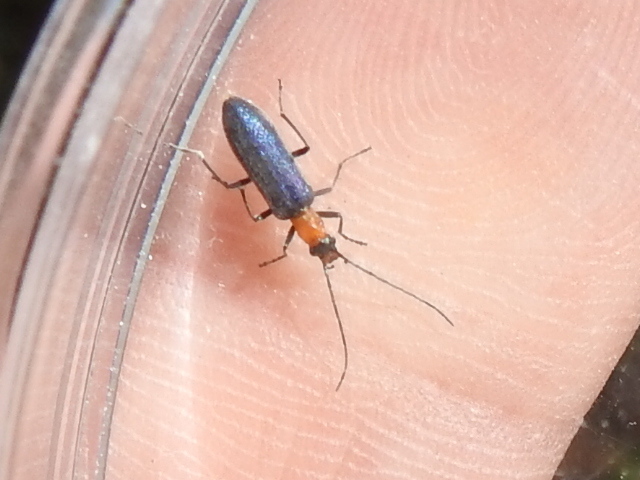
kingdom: Animalia
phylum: Arthropoda
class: Insecta
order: Coleoptera
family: Oedemeridae
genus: Heliocis
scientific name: Heliocis repanda
